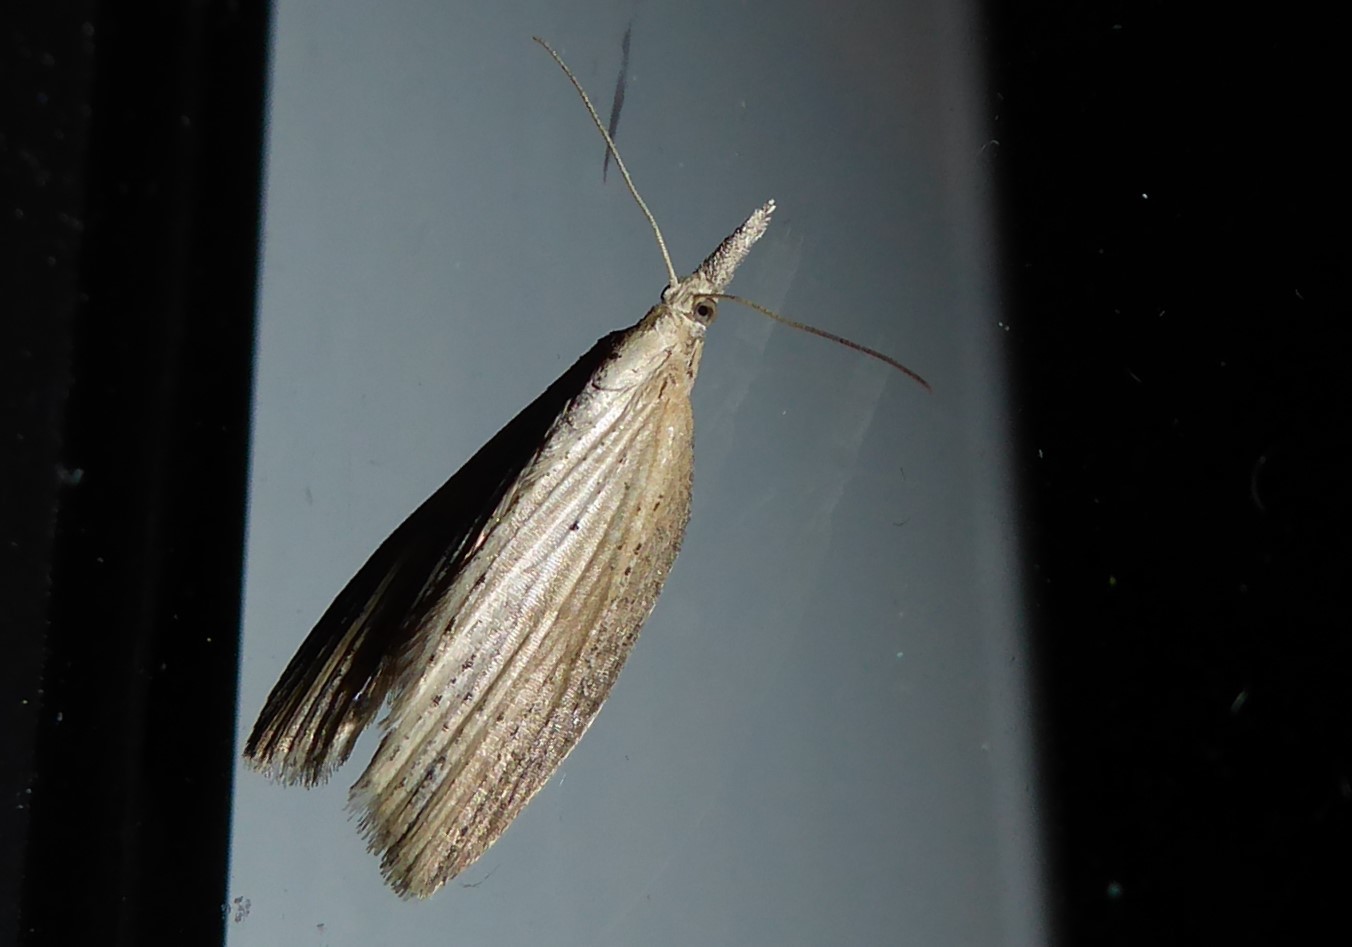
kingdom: Animalia
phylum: Arthropoda
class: Insecta
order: Lepidoptera
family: Geometridae
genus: Microdes
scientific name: Microdes epicryptis
